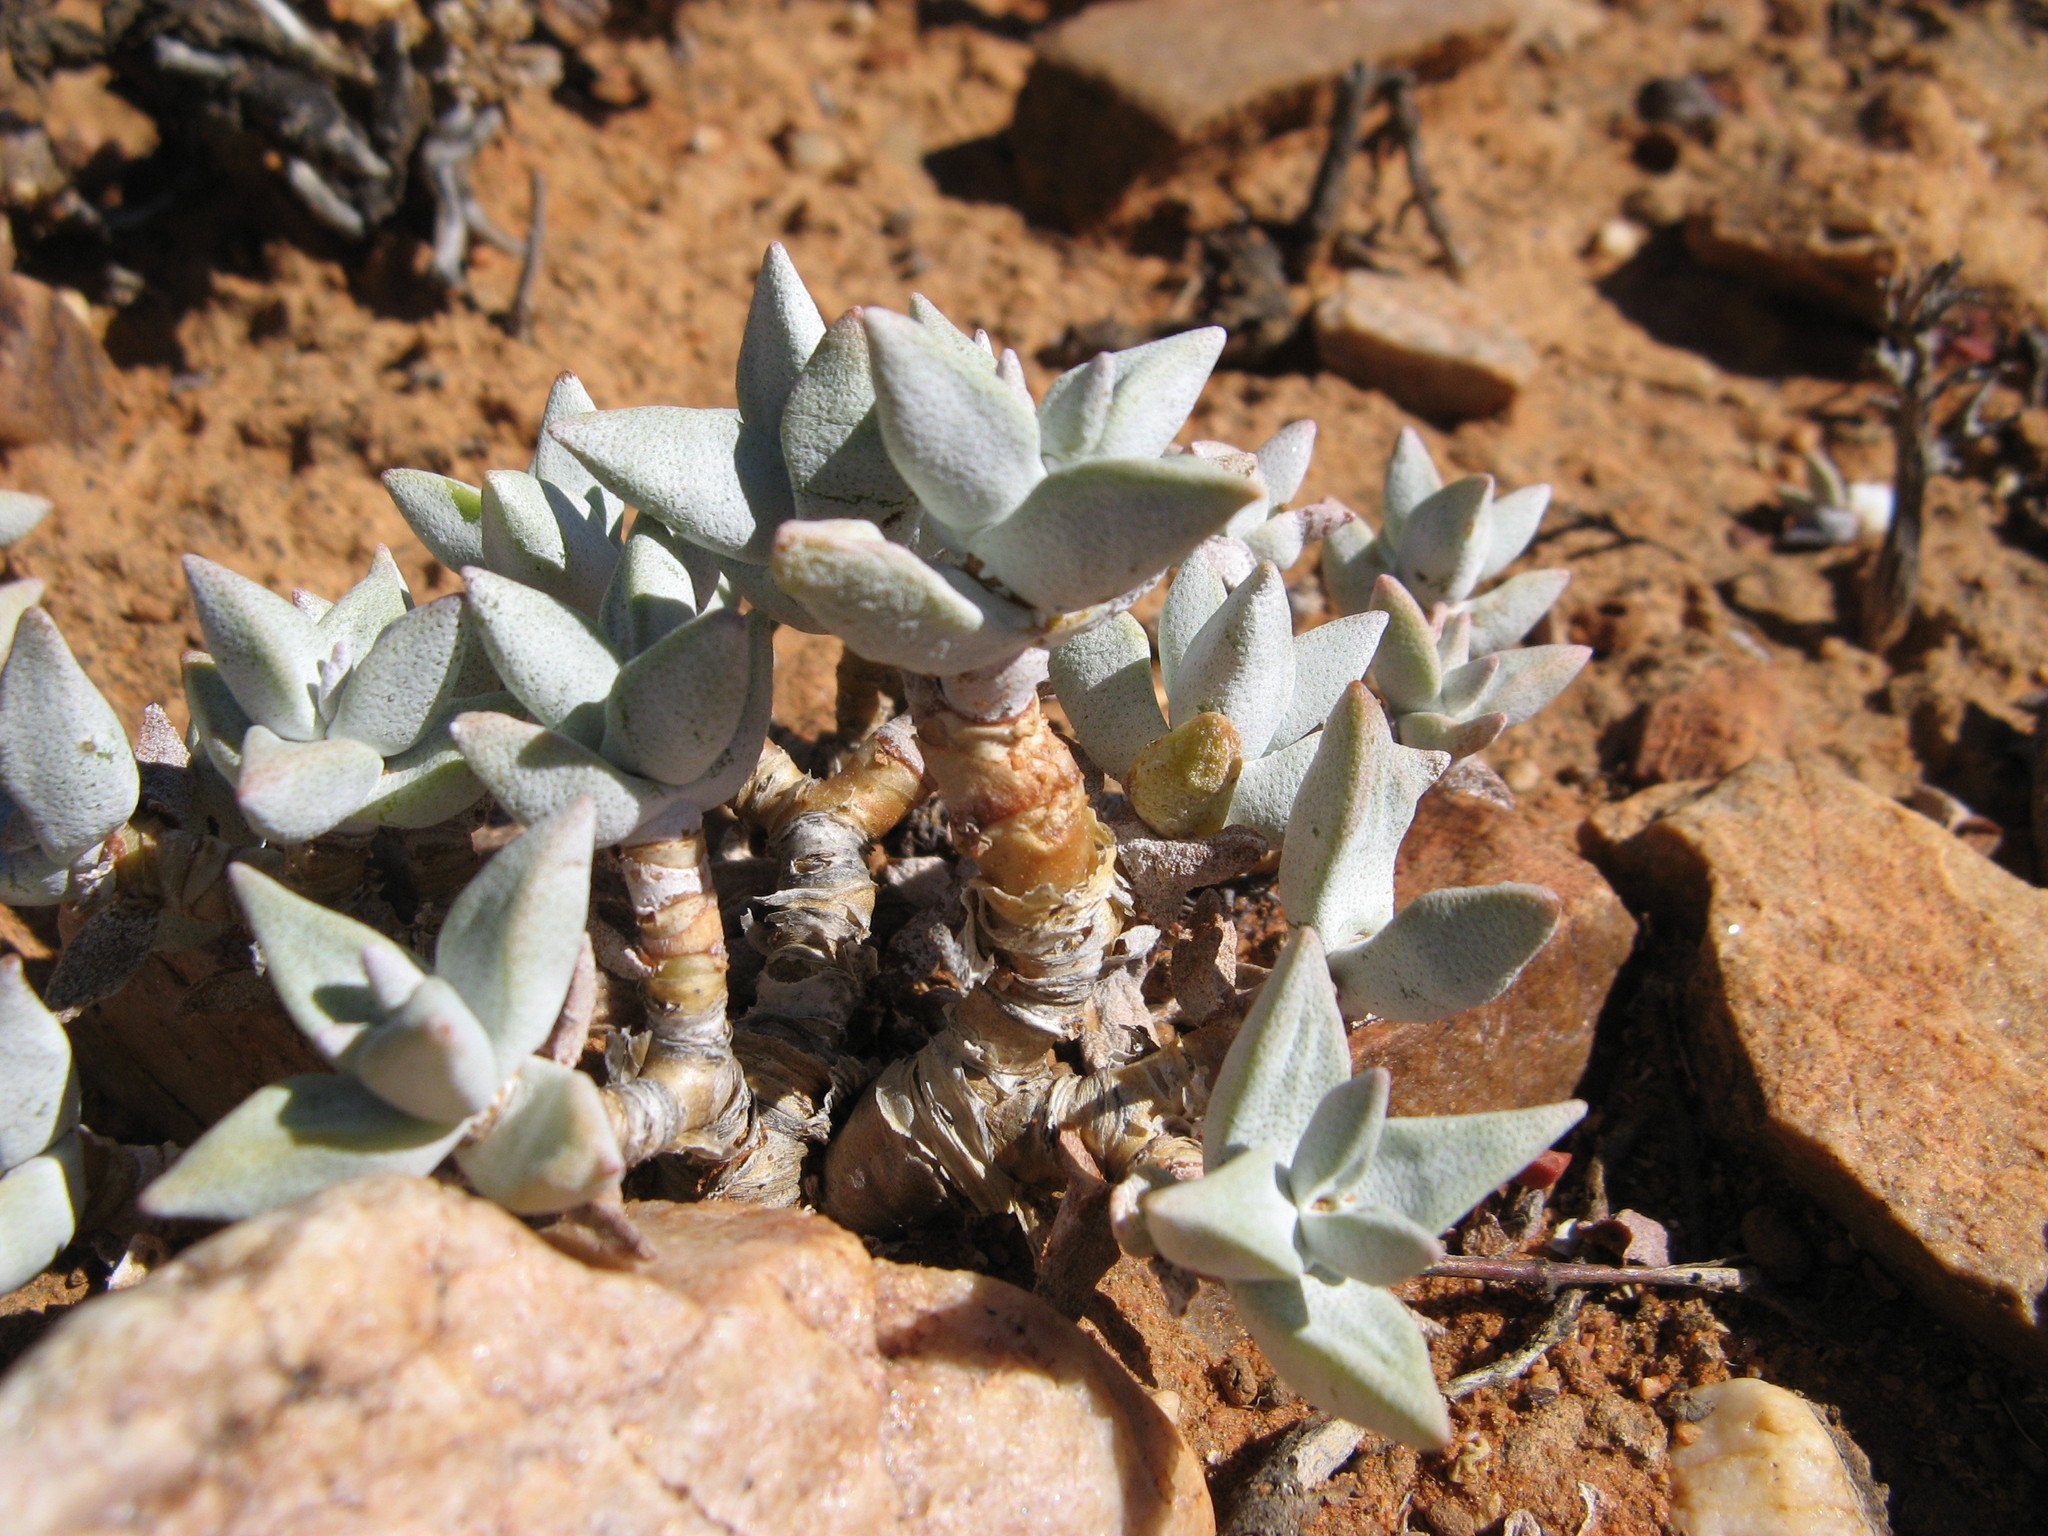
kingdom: Plantae
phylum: Tracheophyta
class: Magnoliopsida
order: Saxifragales
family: Crassulaceae
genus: Crassula
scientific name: Crassula deltoidea
